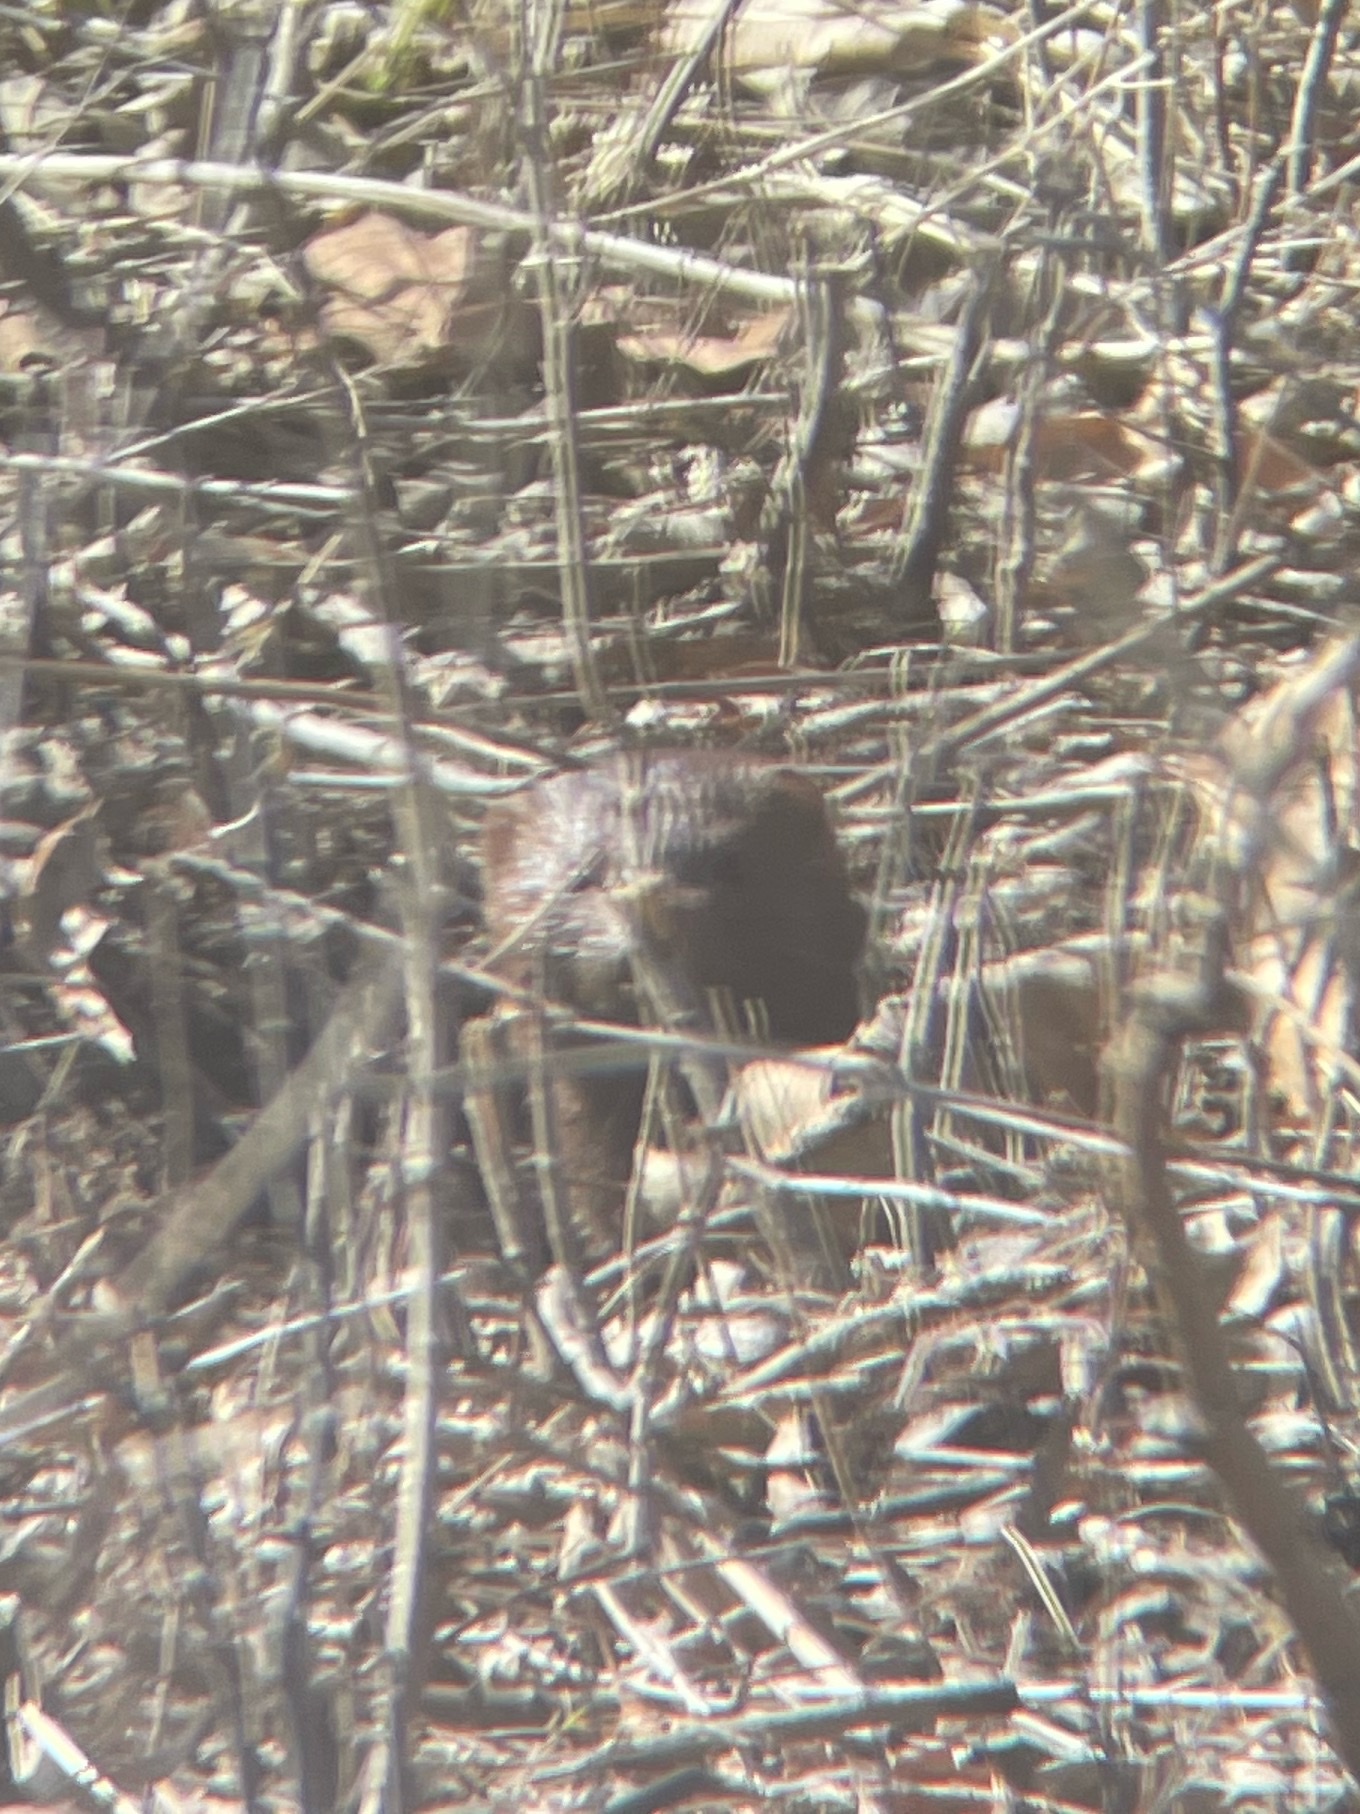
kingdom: Animalia
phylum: Chordata
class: Mammalia
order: Carnivora
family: Mustelidae
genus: Mustela
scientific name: Mustela
